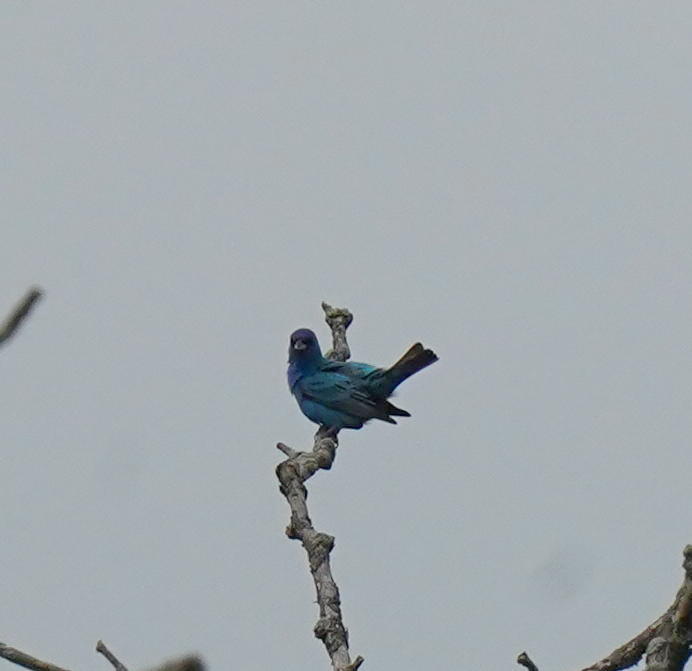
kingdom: Animalia
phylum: Chordata
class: Aves
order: Passeriformes
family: Cardinalidae
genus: Passerina
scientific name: Passerina cyanea
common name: Indigo bunting
